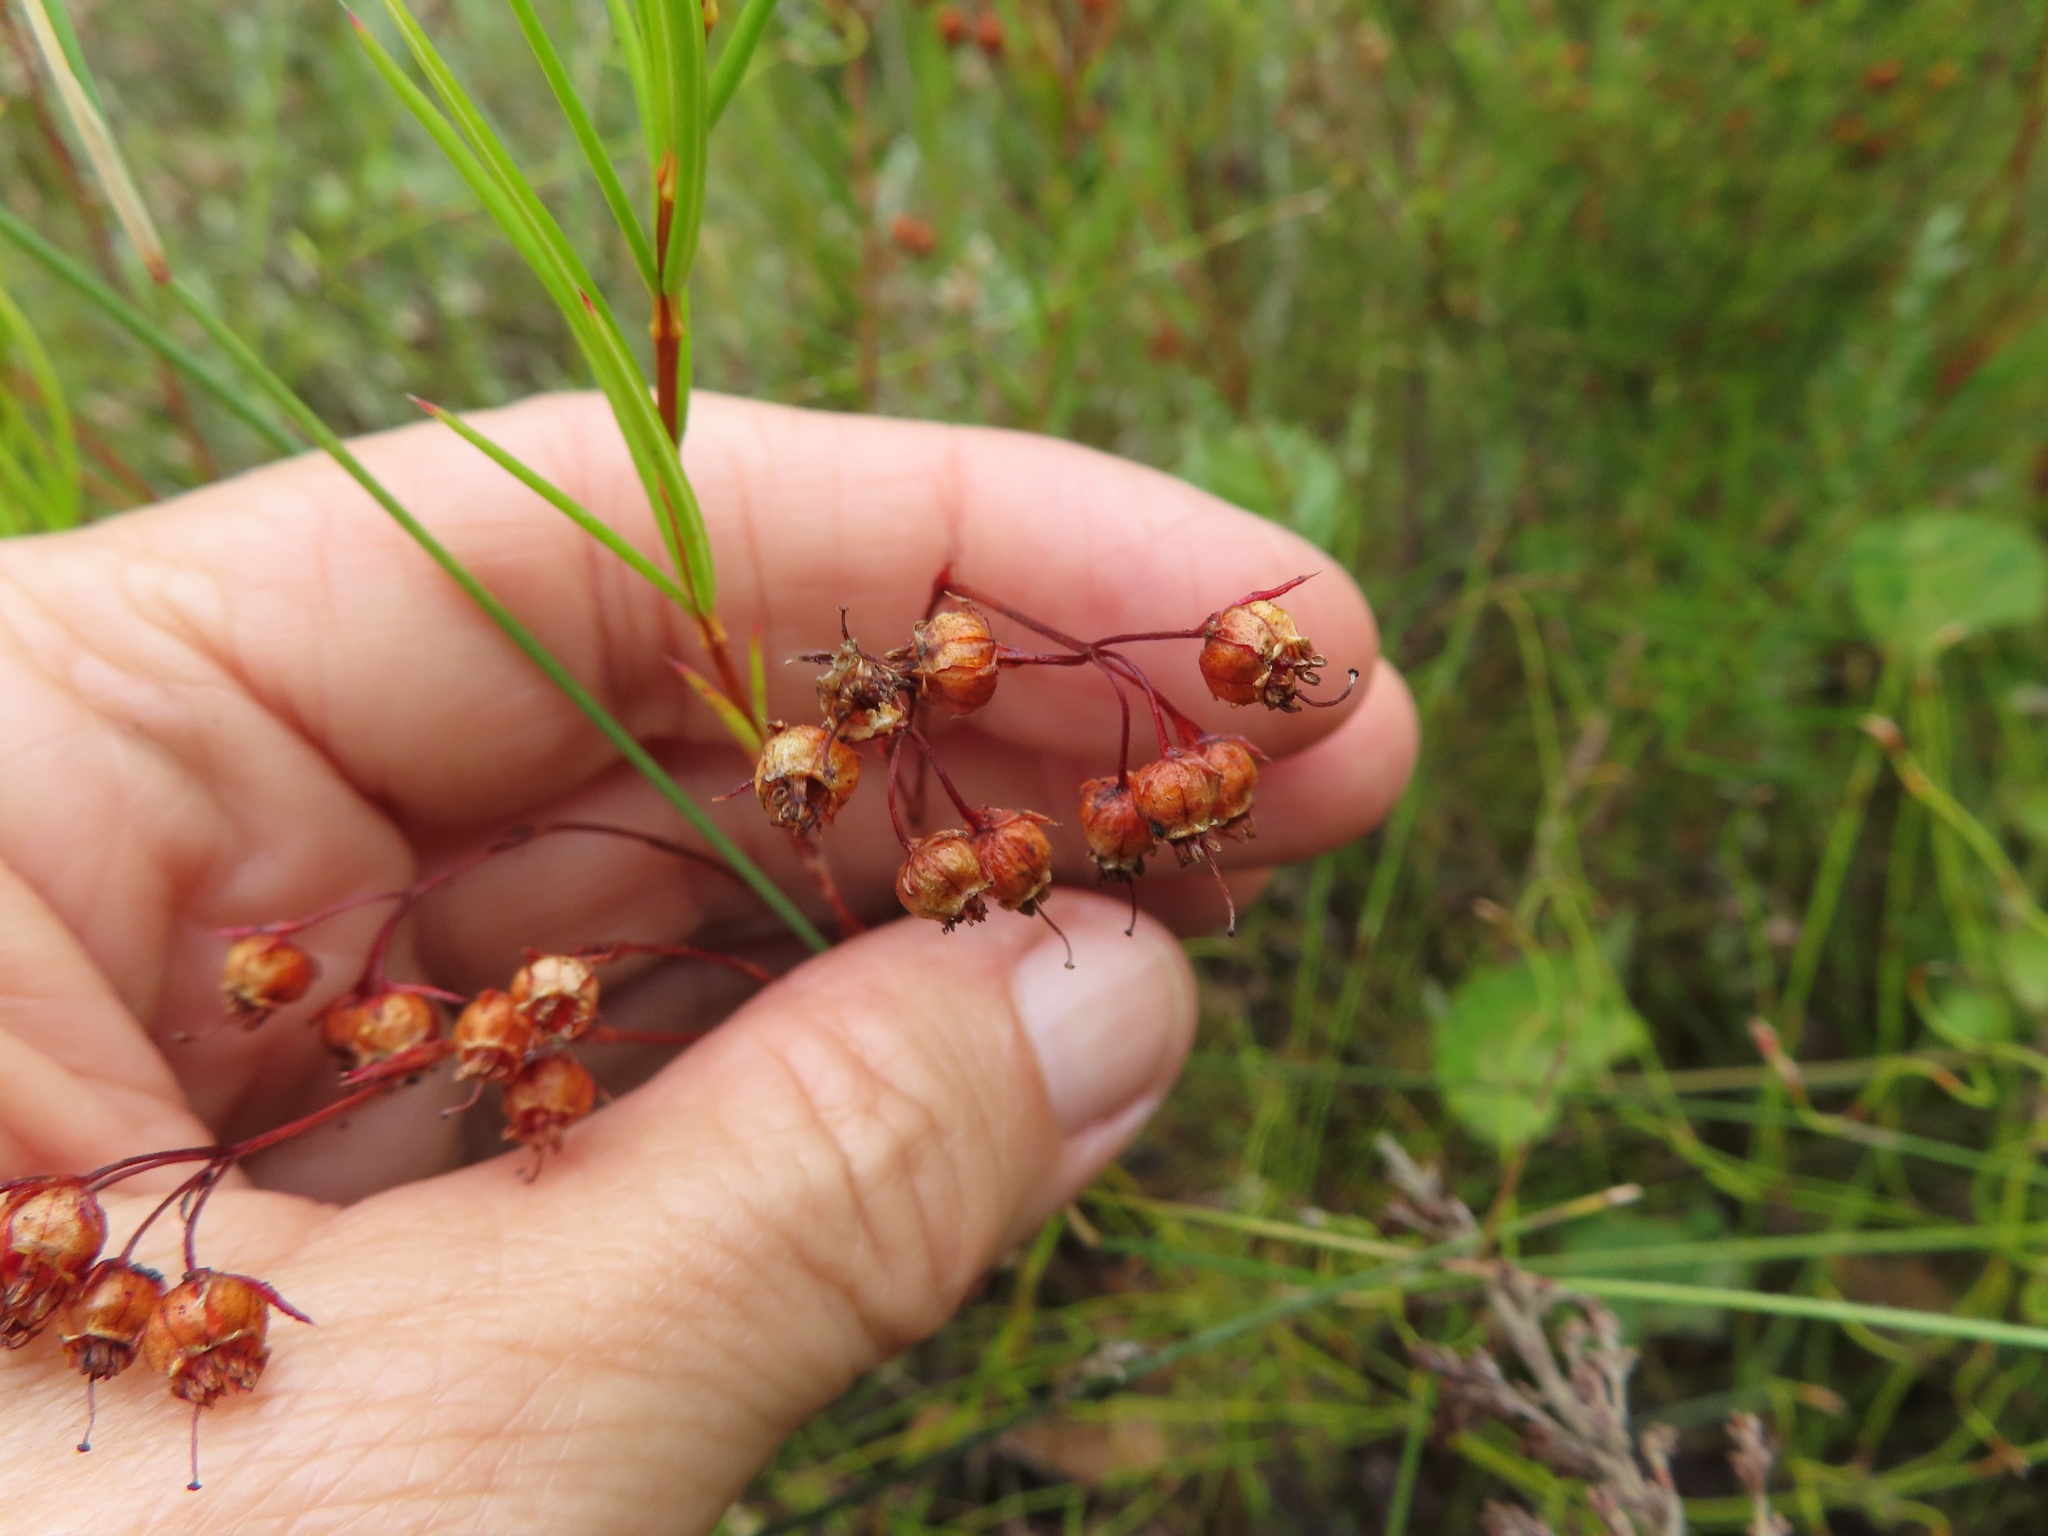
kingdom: Plantae
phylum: Tracheophyta
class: Magnoliopsida
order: Ericales
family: Ericaceae
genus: Erica
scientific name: Erica polifolia
